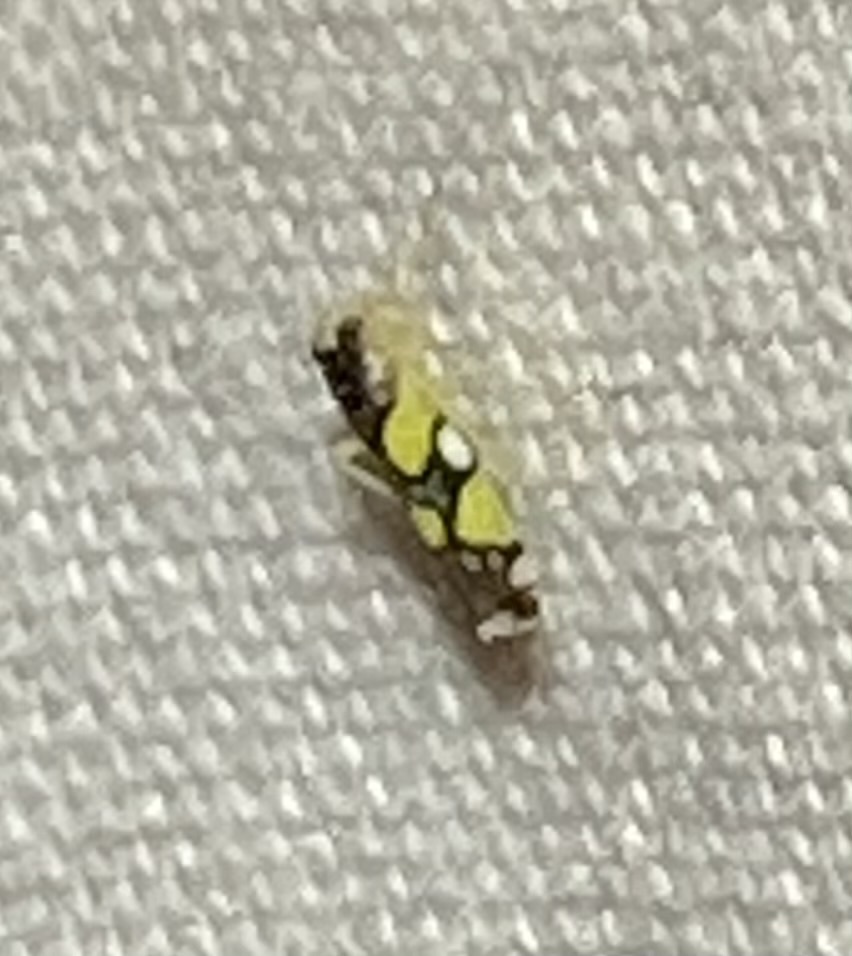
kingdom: Animalia
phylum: Arthropoda
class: Insecta
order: Hemiptera
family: Cicadellidae
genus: Protalebrella
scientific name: Protalebrella brasiliensis
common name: Brasilian leafhopper
